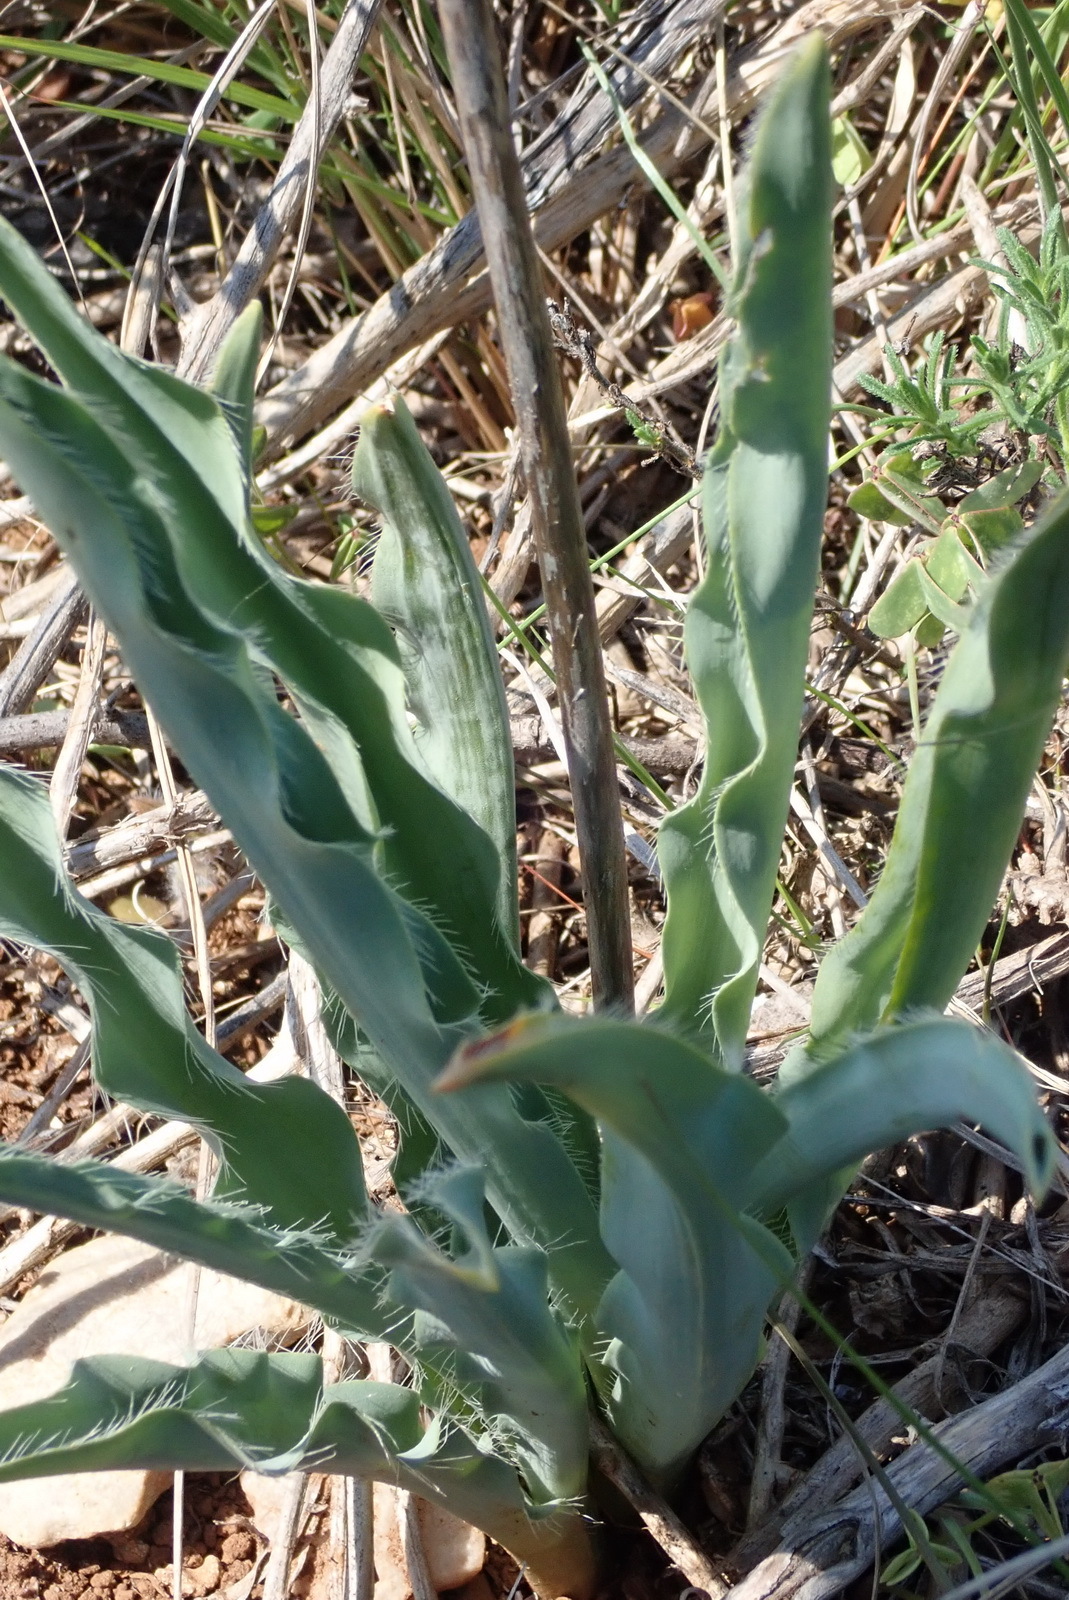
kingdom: Plantae
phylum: Tracheophyta
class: Liliopsida
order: Asparagales
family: Asparagaceae
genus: Drimia
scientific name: Drimia elata
